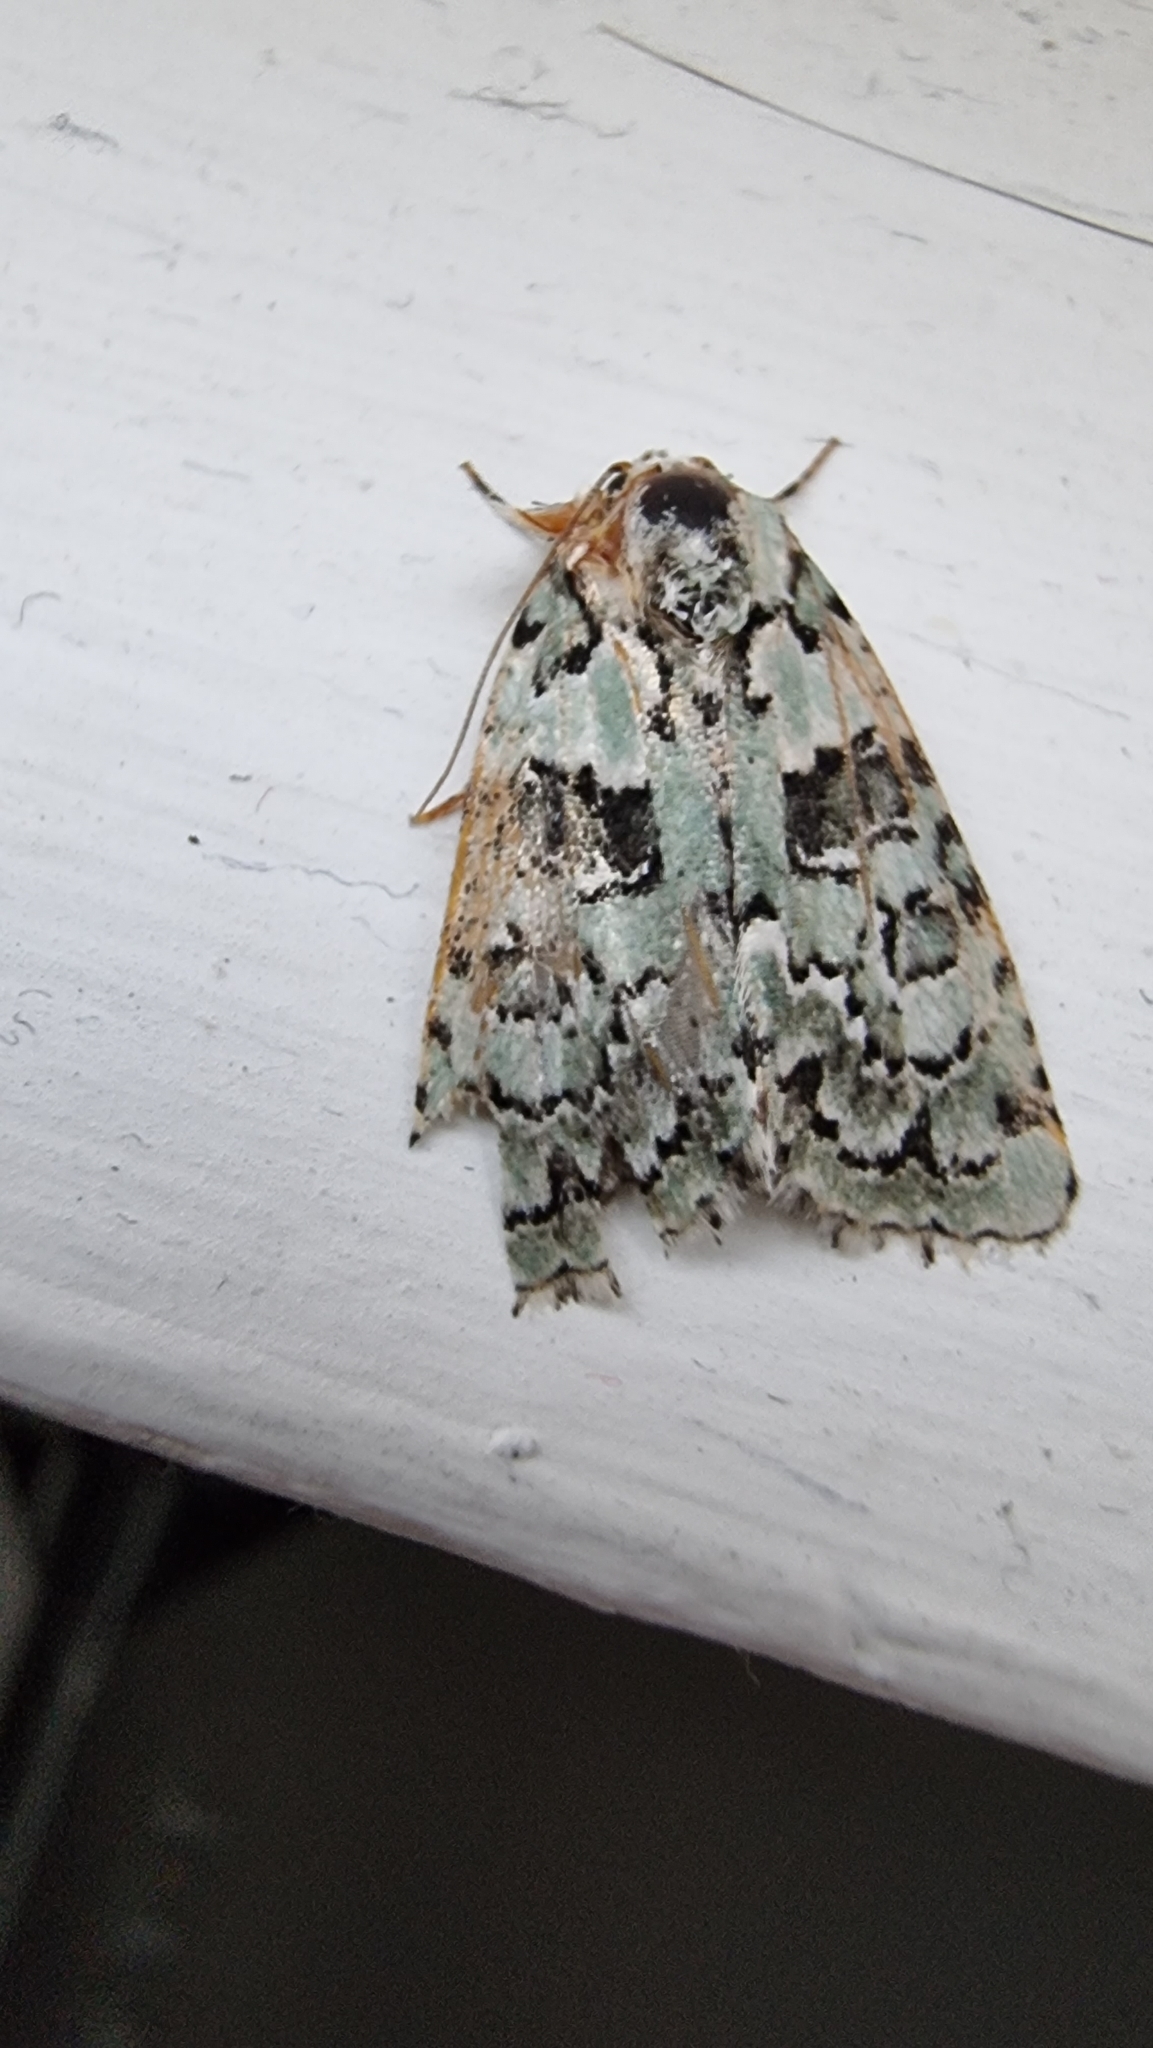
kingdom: Animalia
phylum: Arthropoda
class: Insecta
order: Lepidoptera
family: Noctuidae
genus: Nyctobrya
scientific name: Nyctobrya muralis
